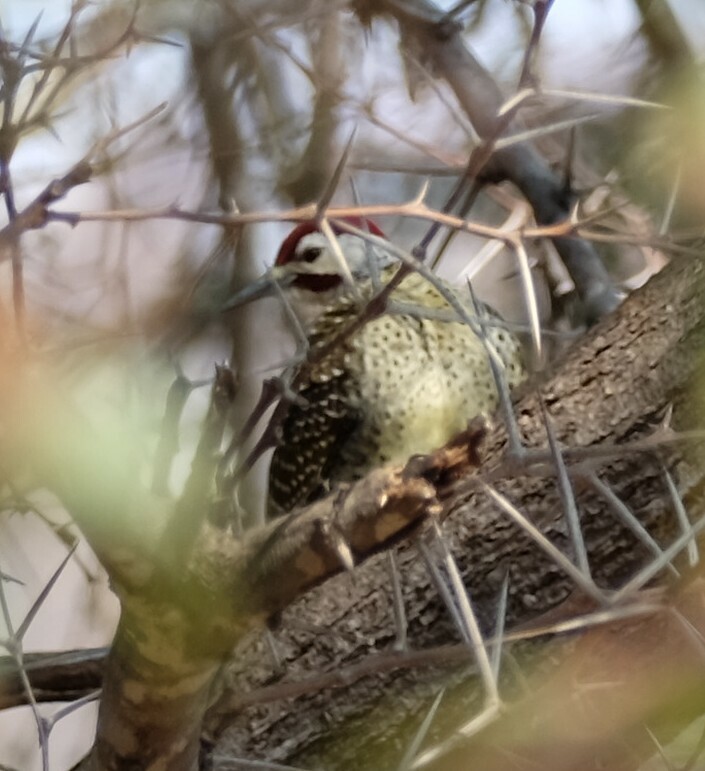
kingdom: Animalia
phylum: Chordata
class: Aves
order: Piciformes
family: Picidae
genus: Campethera
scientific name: Campethera bennettii
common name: Bennett's woodpecker
